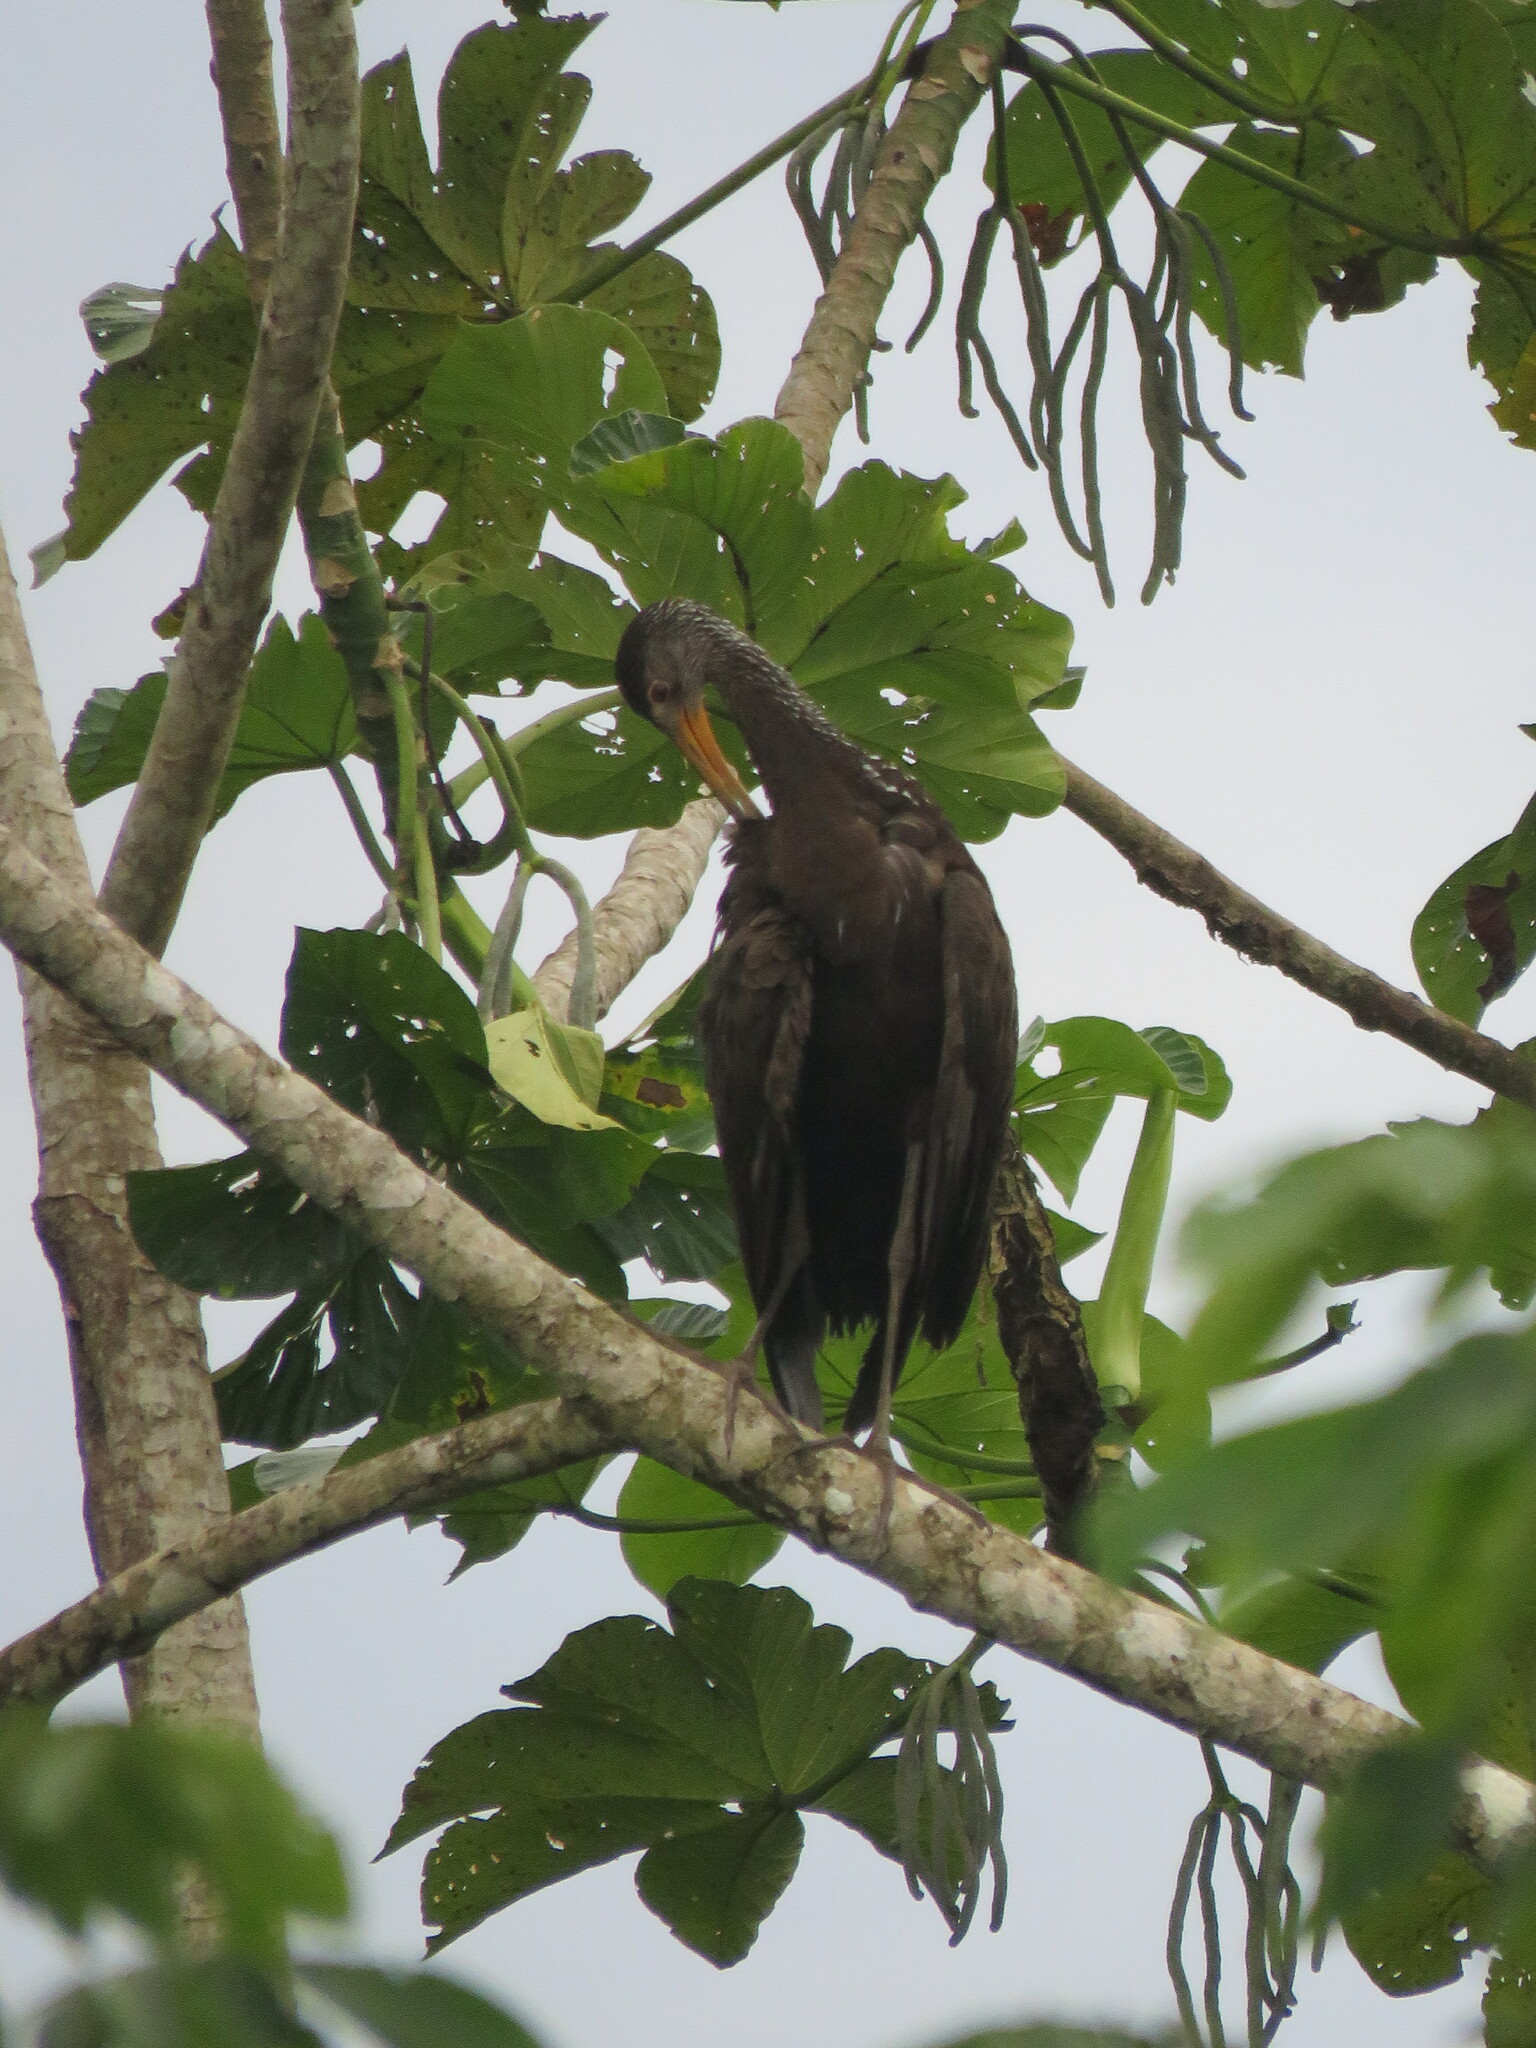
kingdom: Animalia
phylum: Chordata
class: Aves
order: Gruiformes
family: Aramidae
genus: Aramus
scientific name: Aramus guarauna
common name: Limpkin
